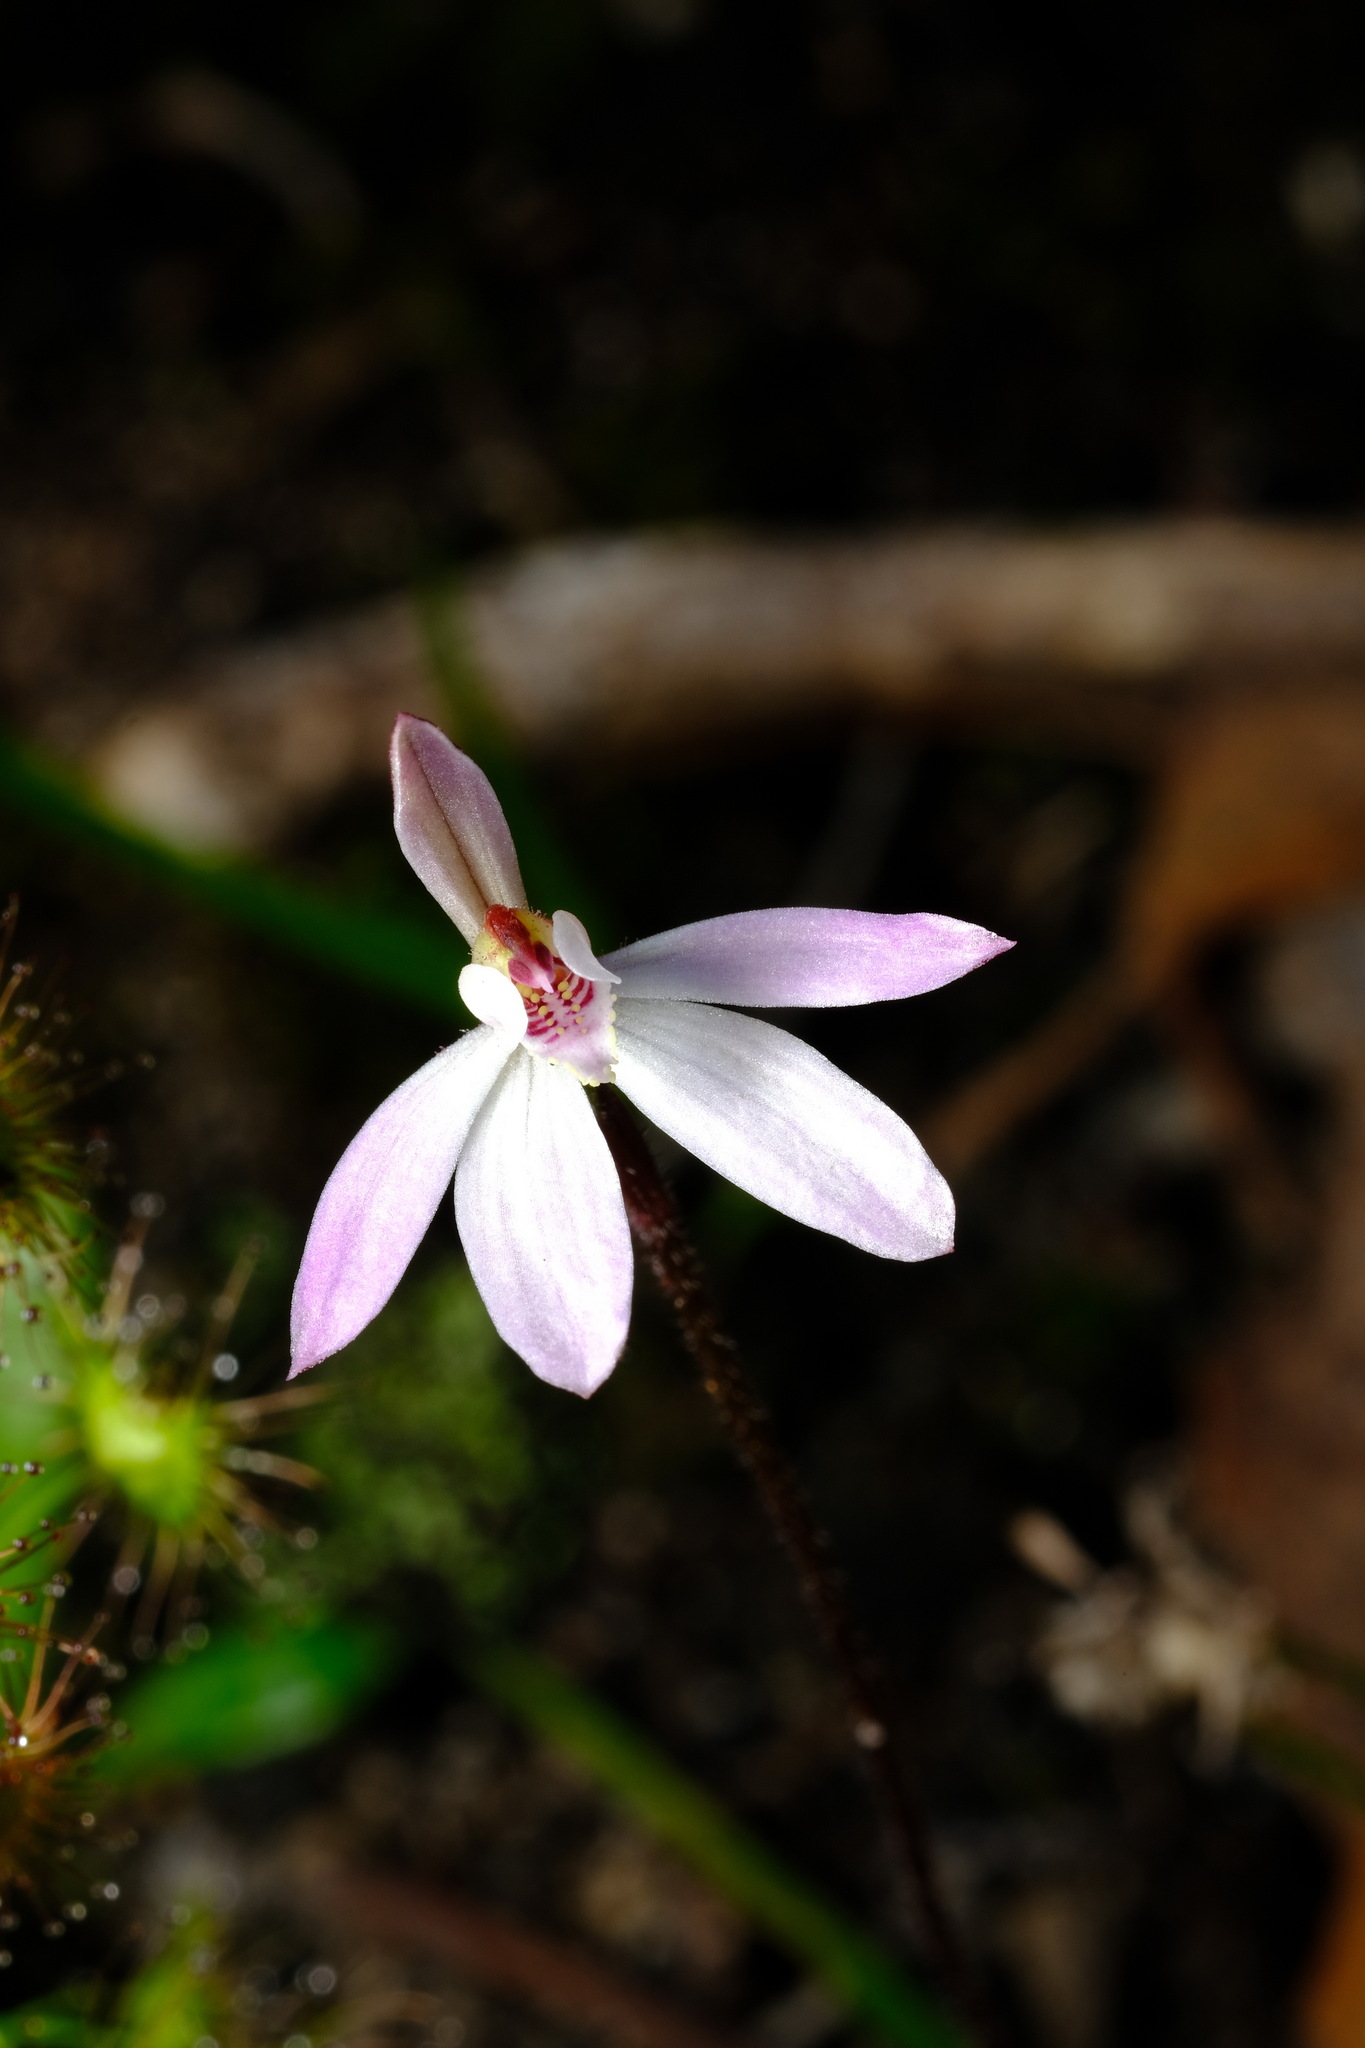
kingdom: Plantae
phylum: Tracheophyta
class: Liliopsida
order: Asparagales
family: Orchidaceae
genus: Caladenia
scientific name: Caladenia fuscata
